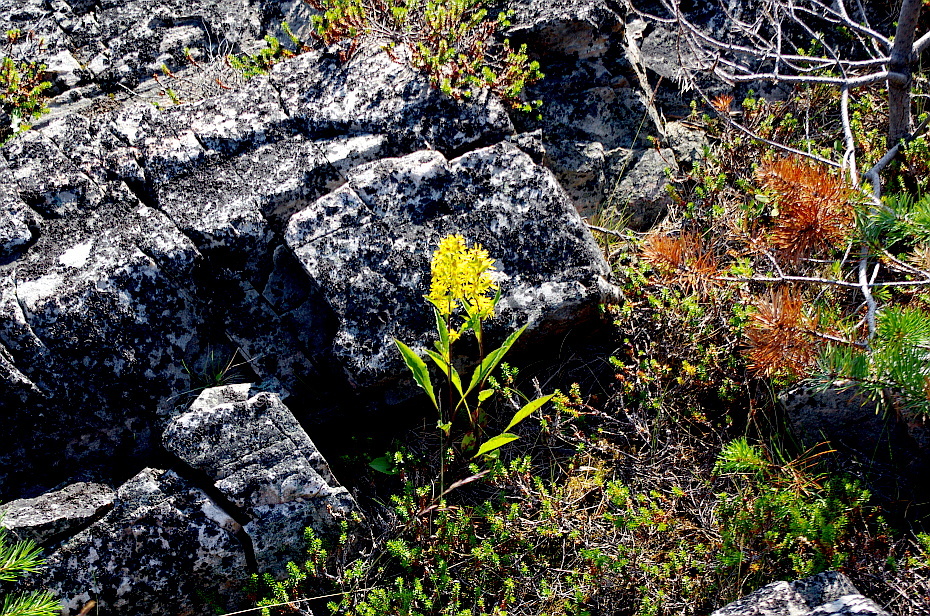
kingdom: Plantae
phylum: Tracheophyta
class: Magnoliopsida
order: Asterales
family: Asteraceae
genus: Solidago
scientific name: Solidago virgaurea
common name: Goldenrod
